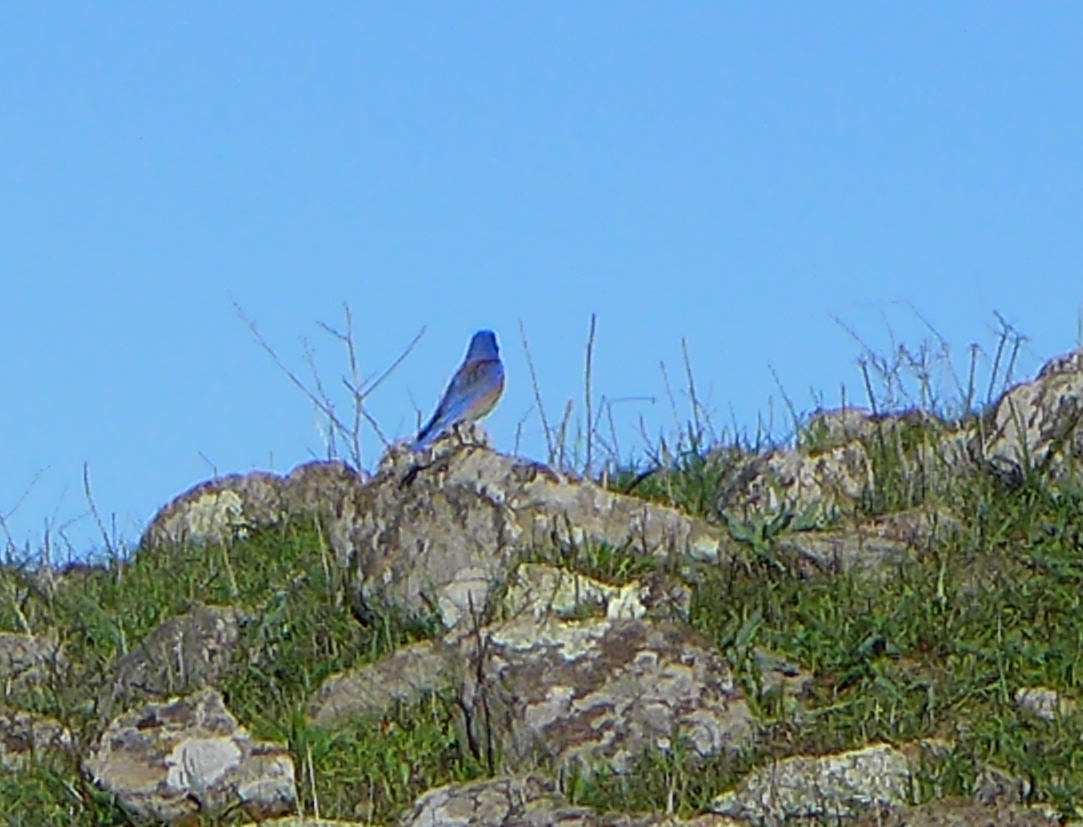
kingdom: Animalia
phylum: Chordata
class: Aves
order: Passeriformes
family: Turdidae
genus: Sialia
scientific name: Sialia mexicana
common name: Western bluebird
